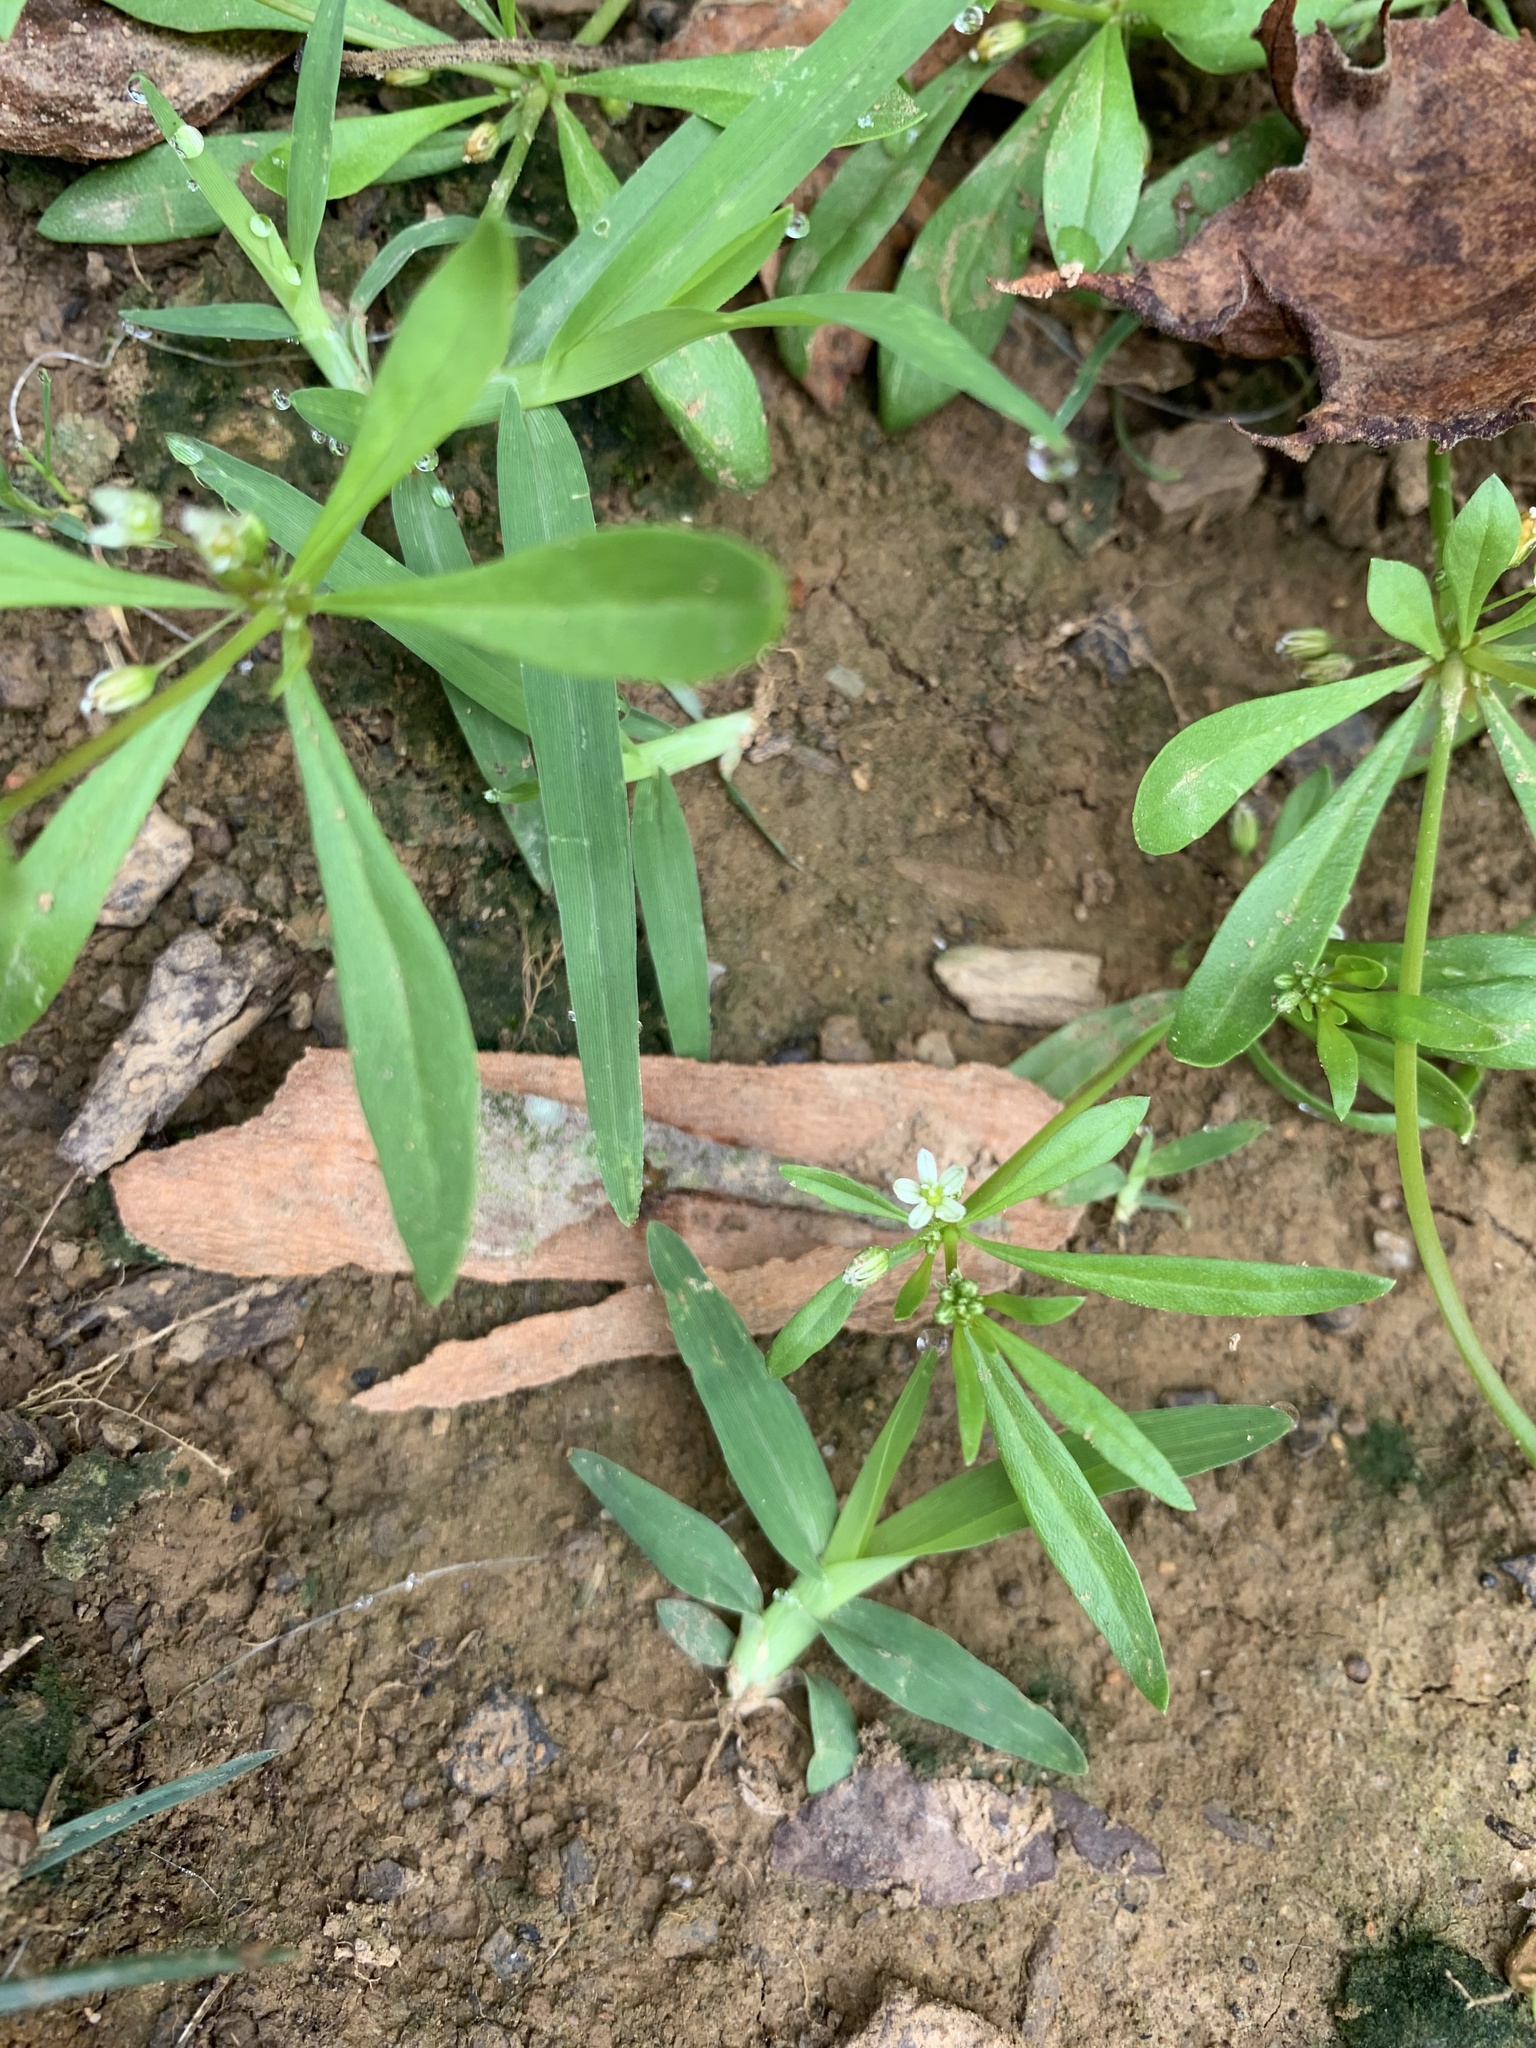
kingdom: Plantae
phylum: Tracheophyta
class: Magnoliopsida
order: Caryophyllales
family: Molluginaceae
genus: Mollugo
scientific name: Mollugo verticillata
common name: Green carpetweed
